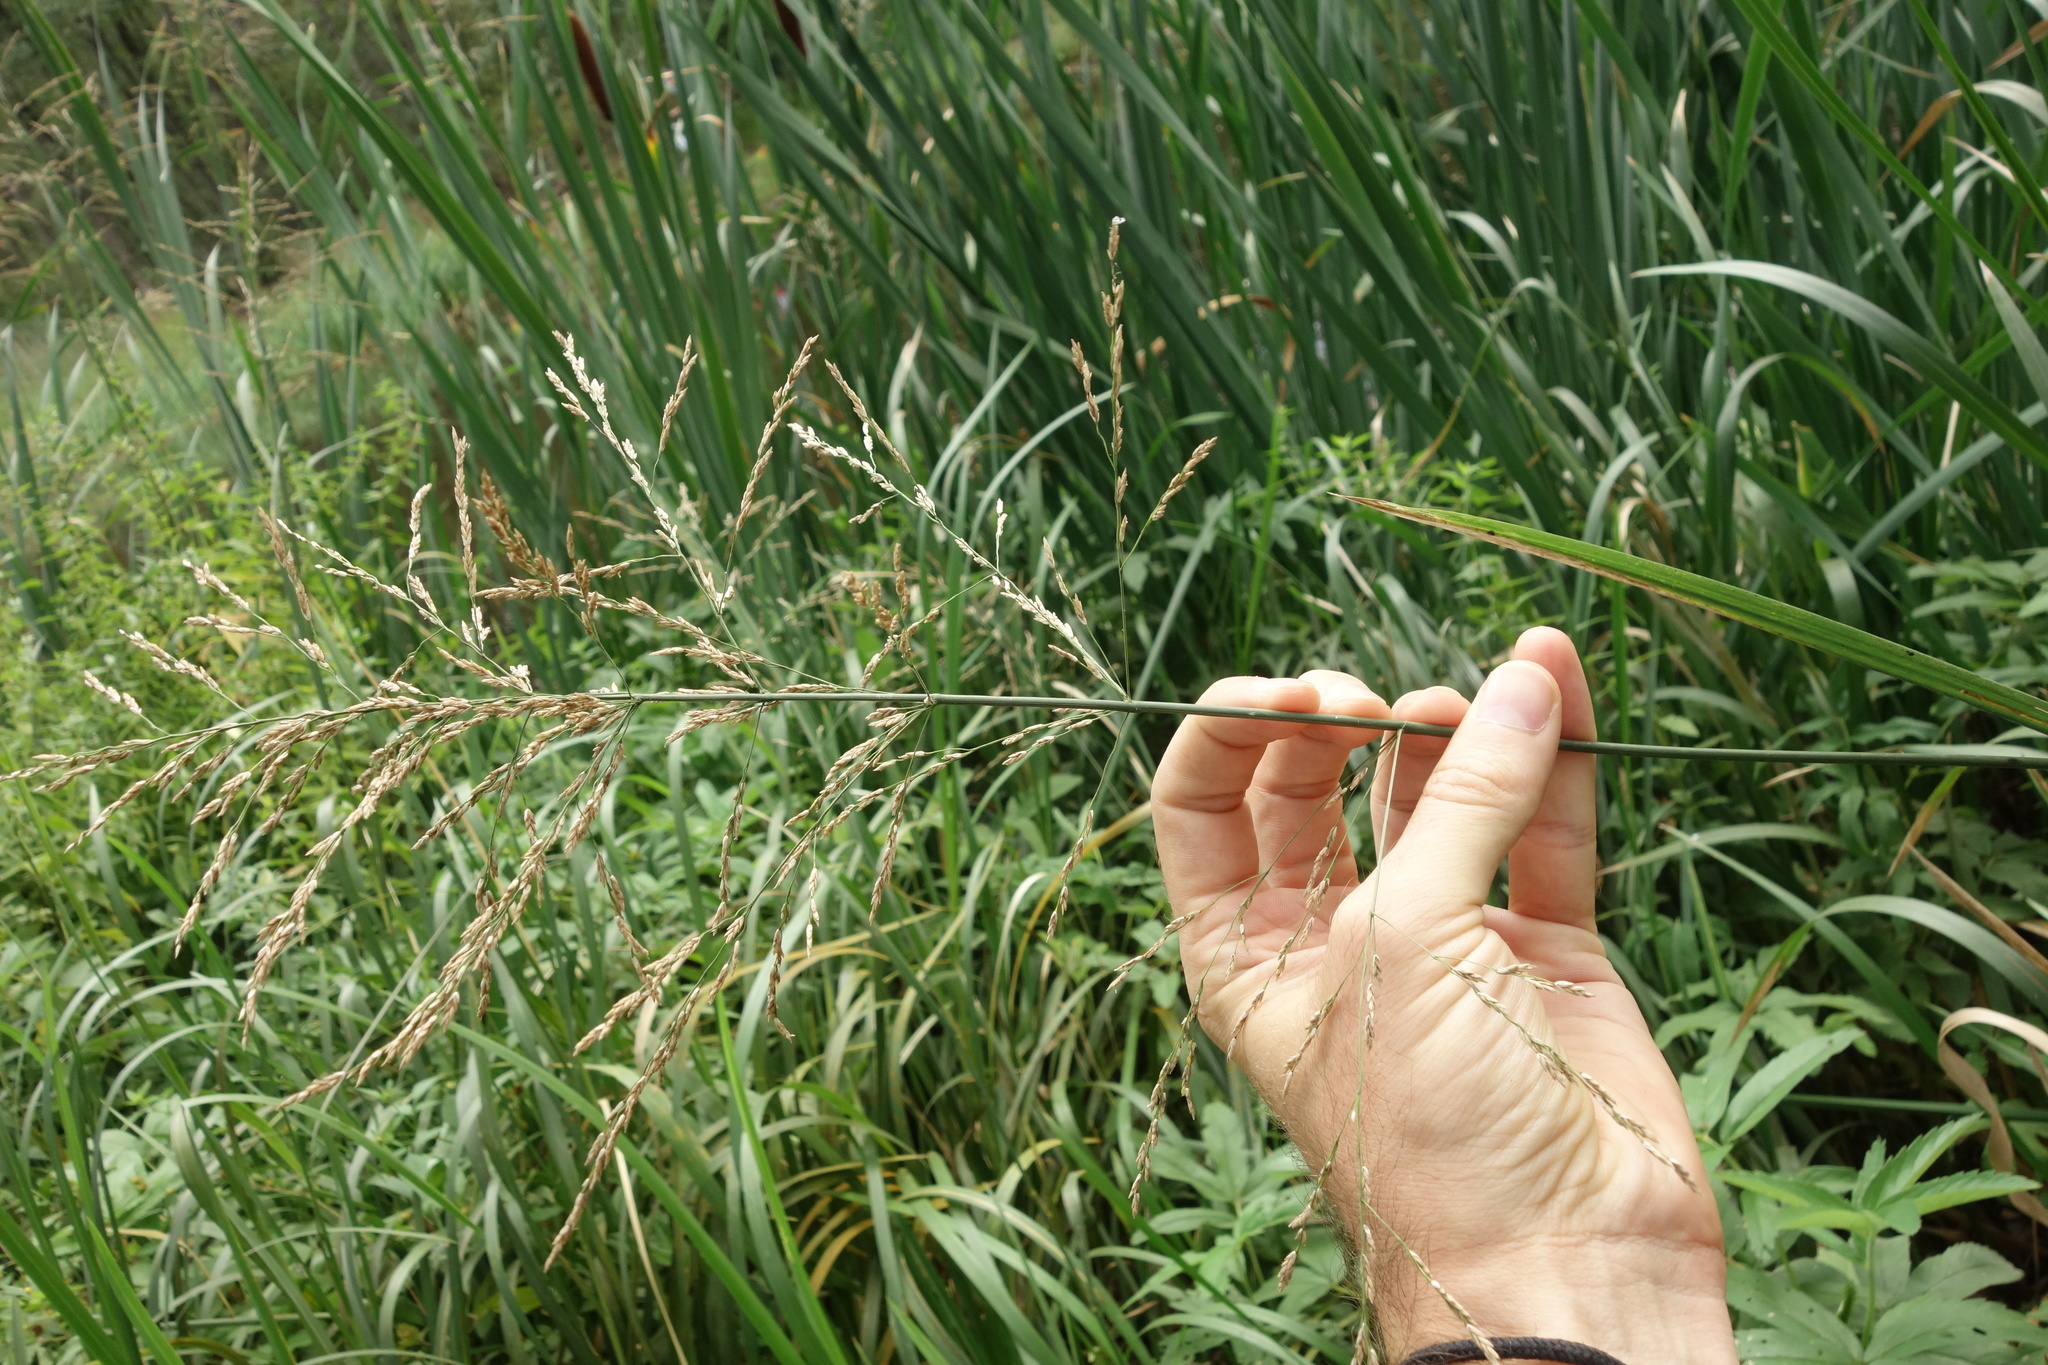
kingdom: Plantae
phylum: Tracheophyta
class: Liliopsida
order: Poales
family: Poaceae
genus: Glyceria
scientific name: Glyceria maxima
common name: Reed mannagrass
